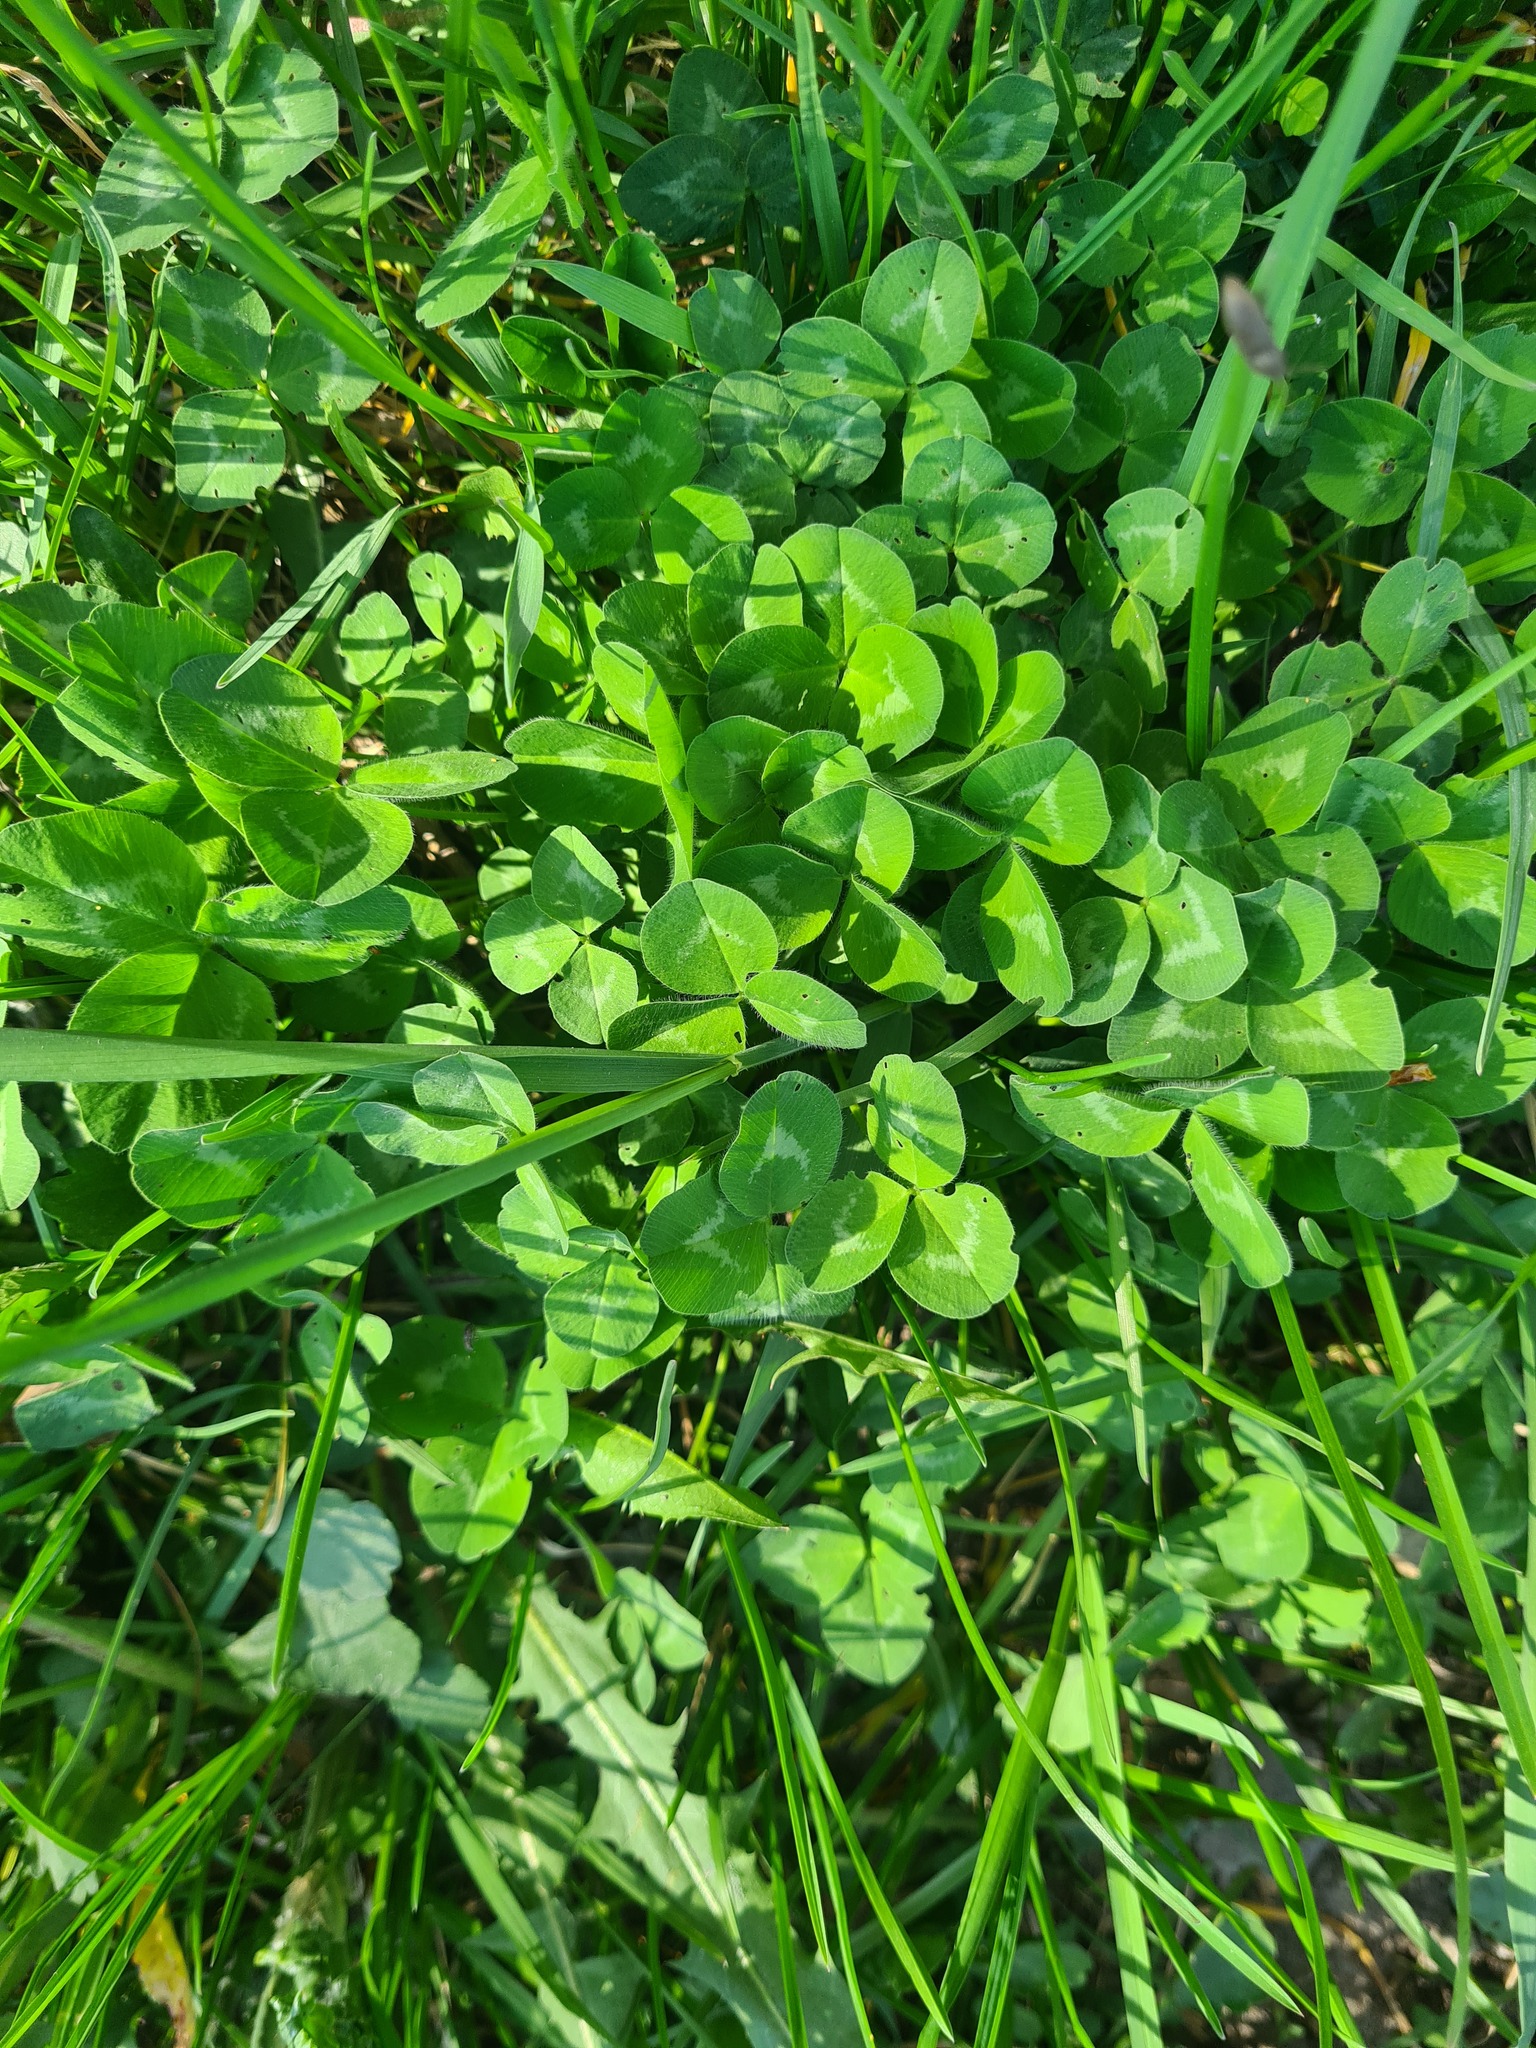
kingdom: Plantae
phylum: Tracheophyta
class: Magnoliopsida
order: Fabales
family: Fabaceae
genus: Trifolium
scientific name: Trifolium pratense
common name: Red clover
